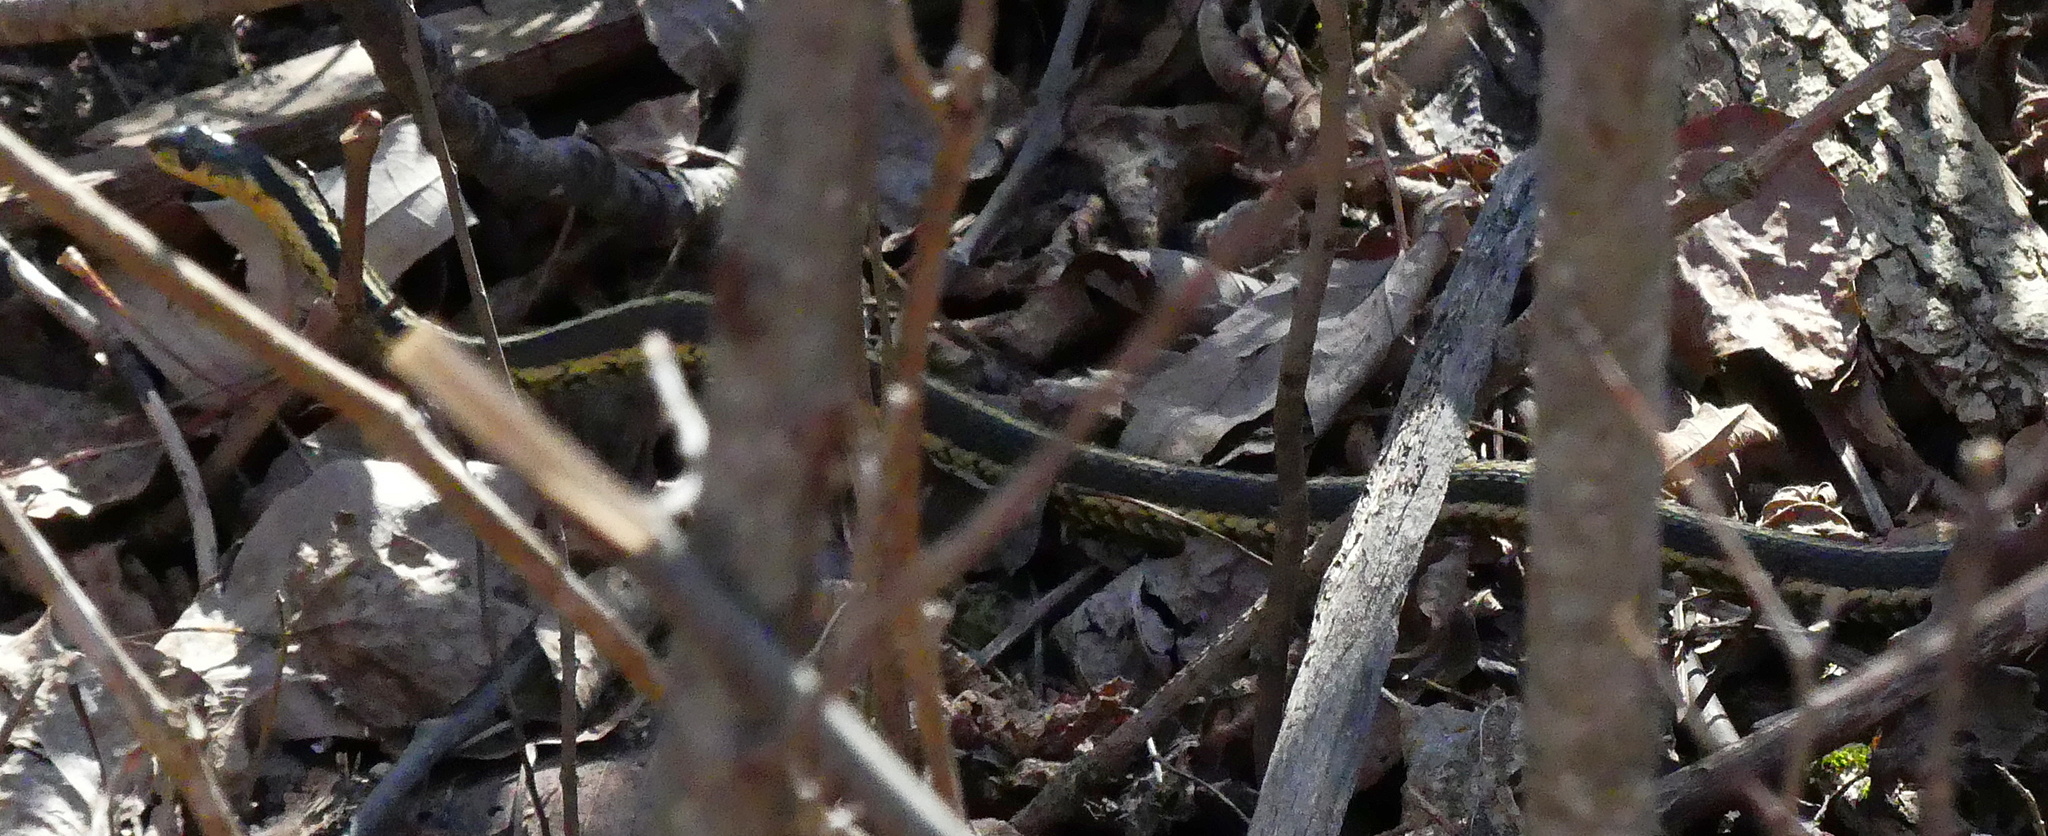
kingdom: Animalia
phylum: Chordata
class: Squamata
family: Colubridae
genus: Thamnophis
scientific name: Thamnophis sirtalis
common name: Common garter snake
